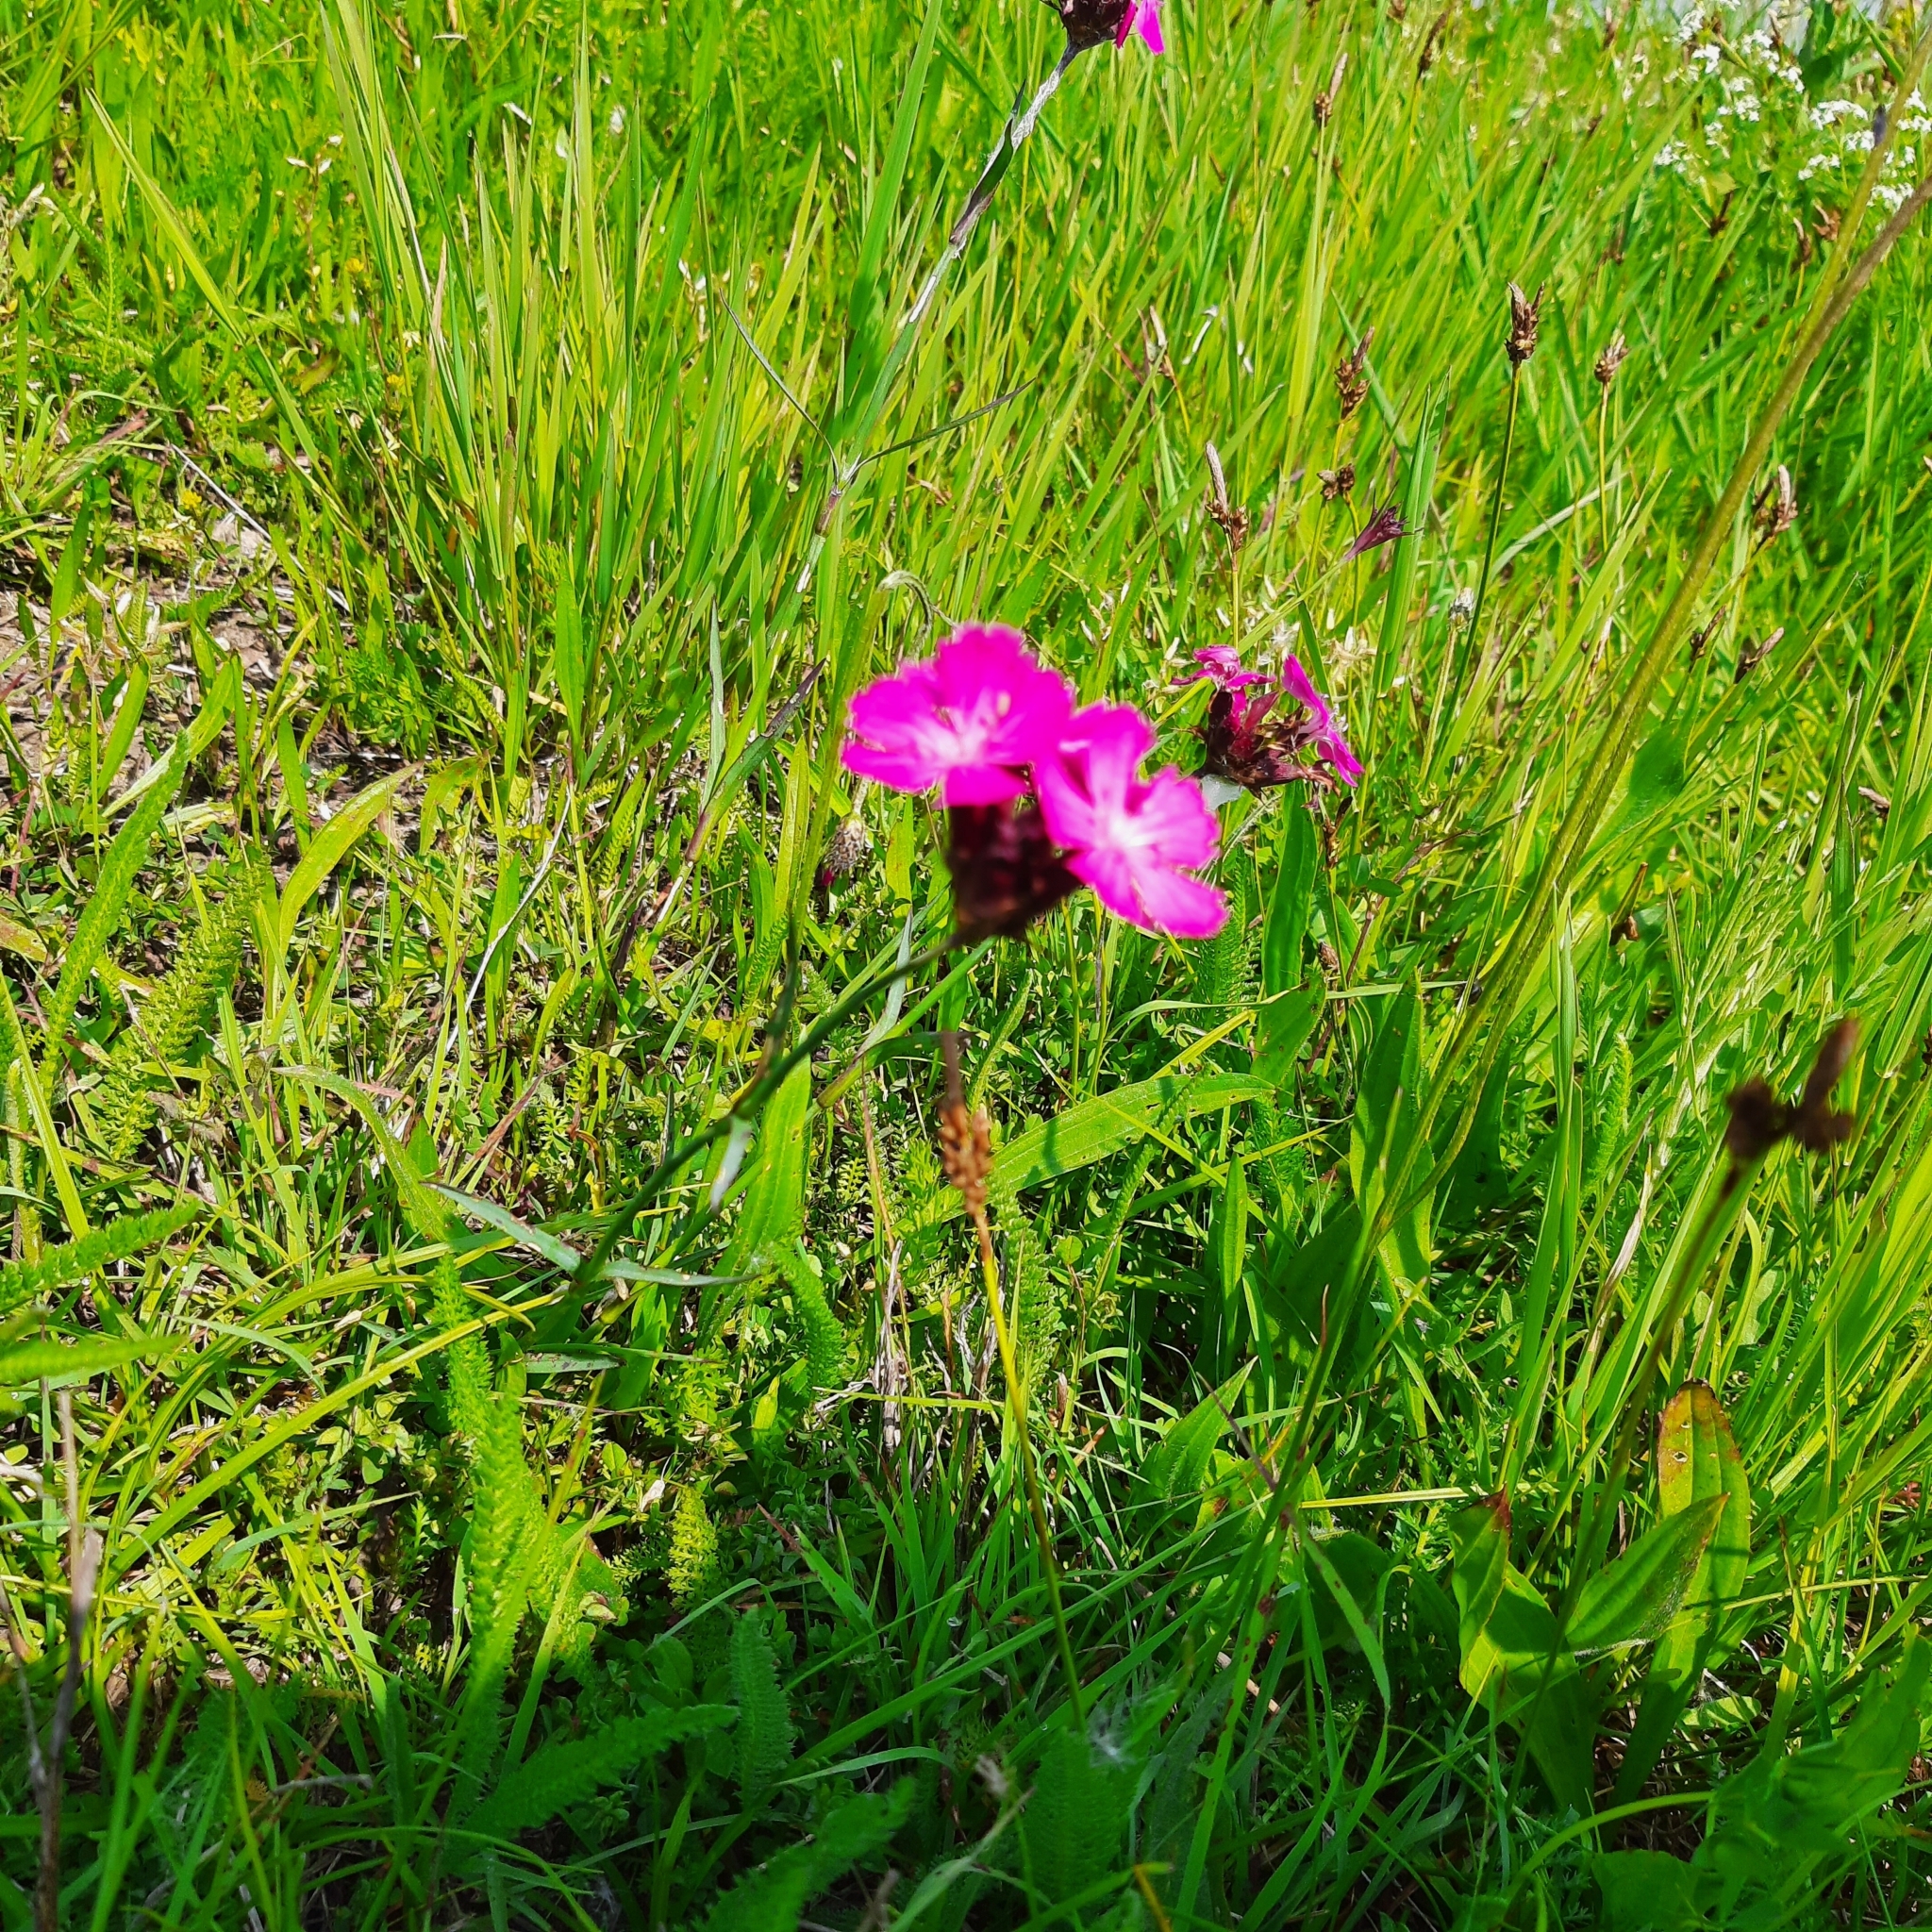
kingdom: Plantae
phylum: Tracheophyta
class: Magnoliopsida
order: Caryophyllales
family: Caryophyllaceae
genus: Dianthus
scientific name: Dianthus carthusianorum
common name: Carthusian pink
